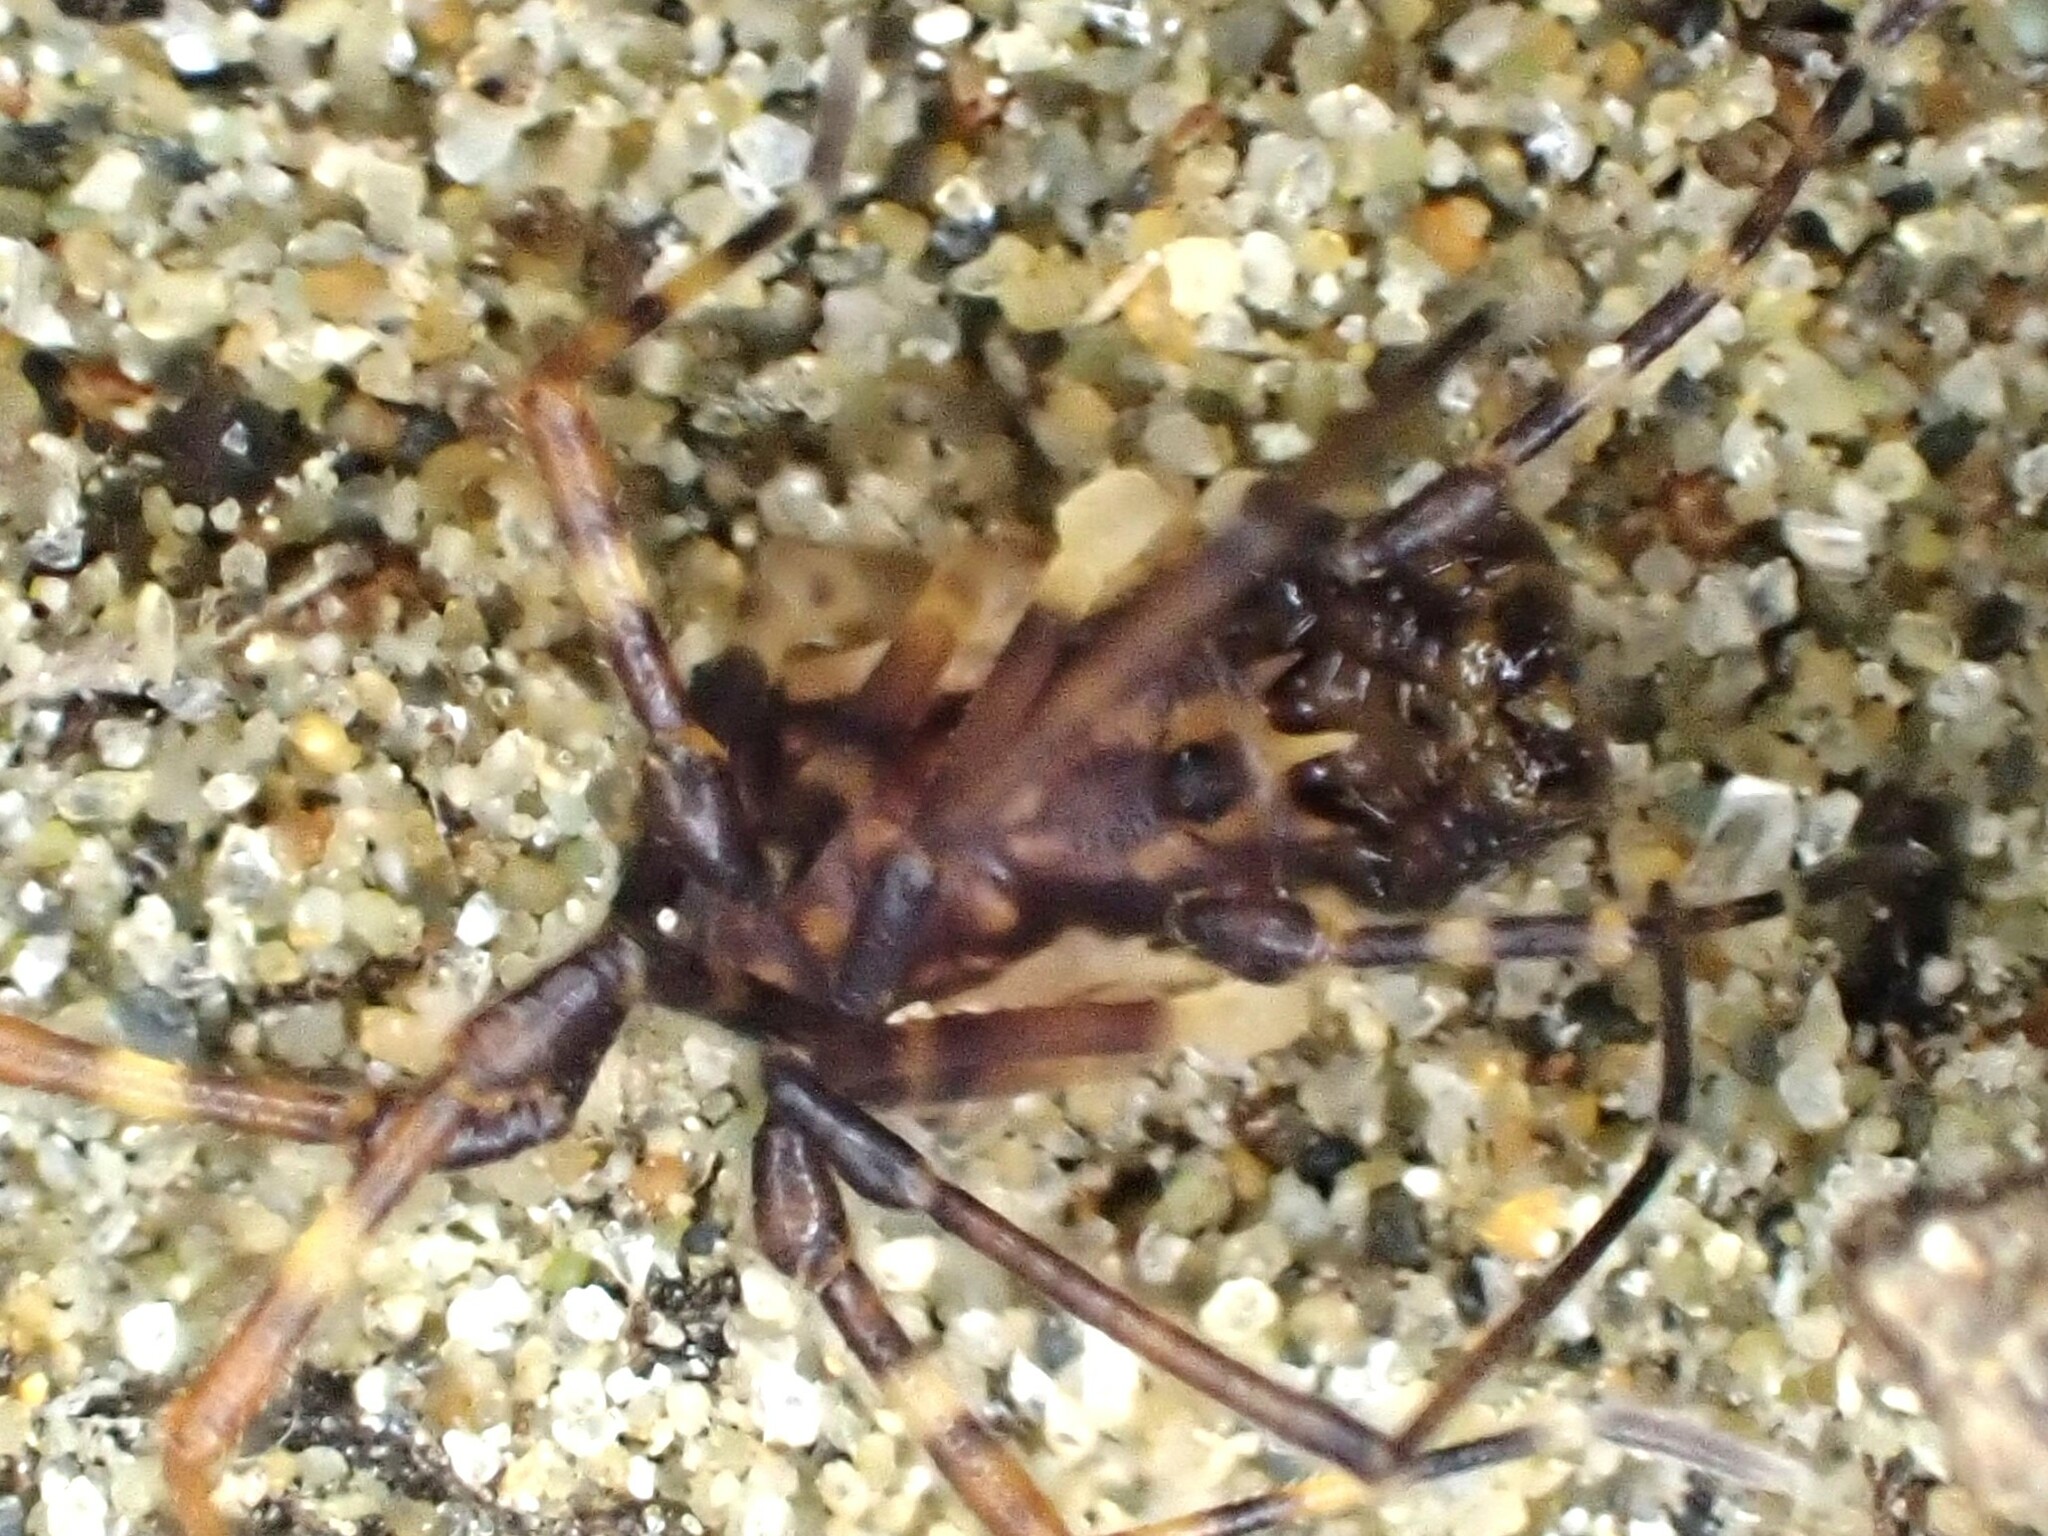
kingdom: Animalia
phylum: Arthropoda
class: Arachnida
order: Opiliones
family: Triaenonychidae
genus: Algidia
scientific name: Algidia chiltoni
